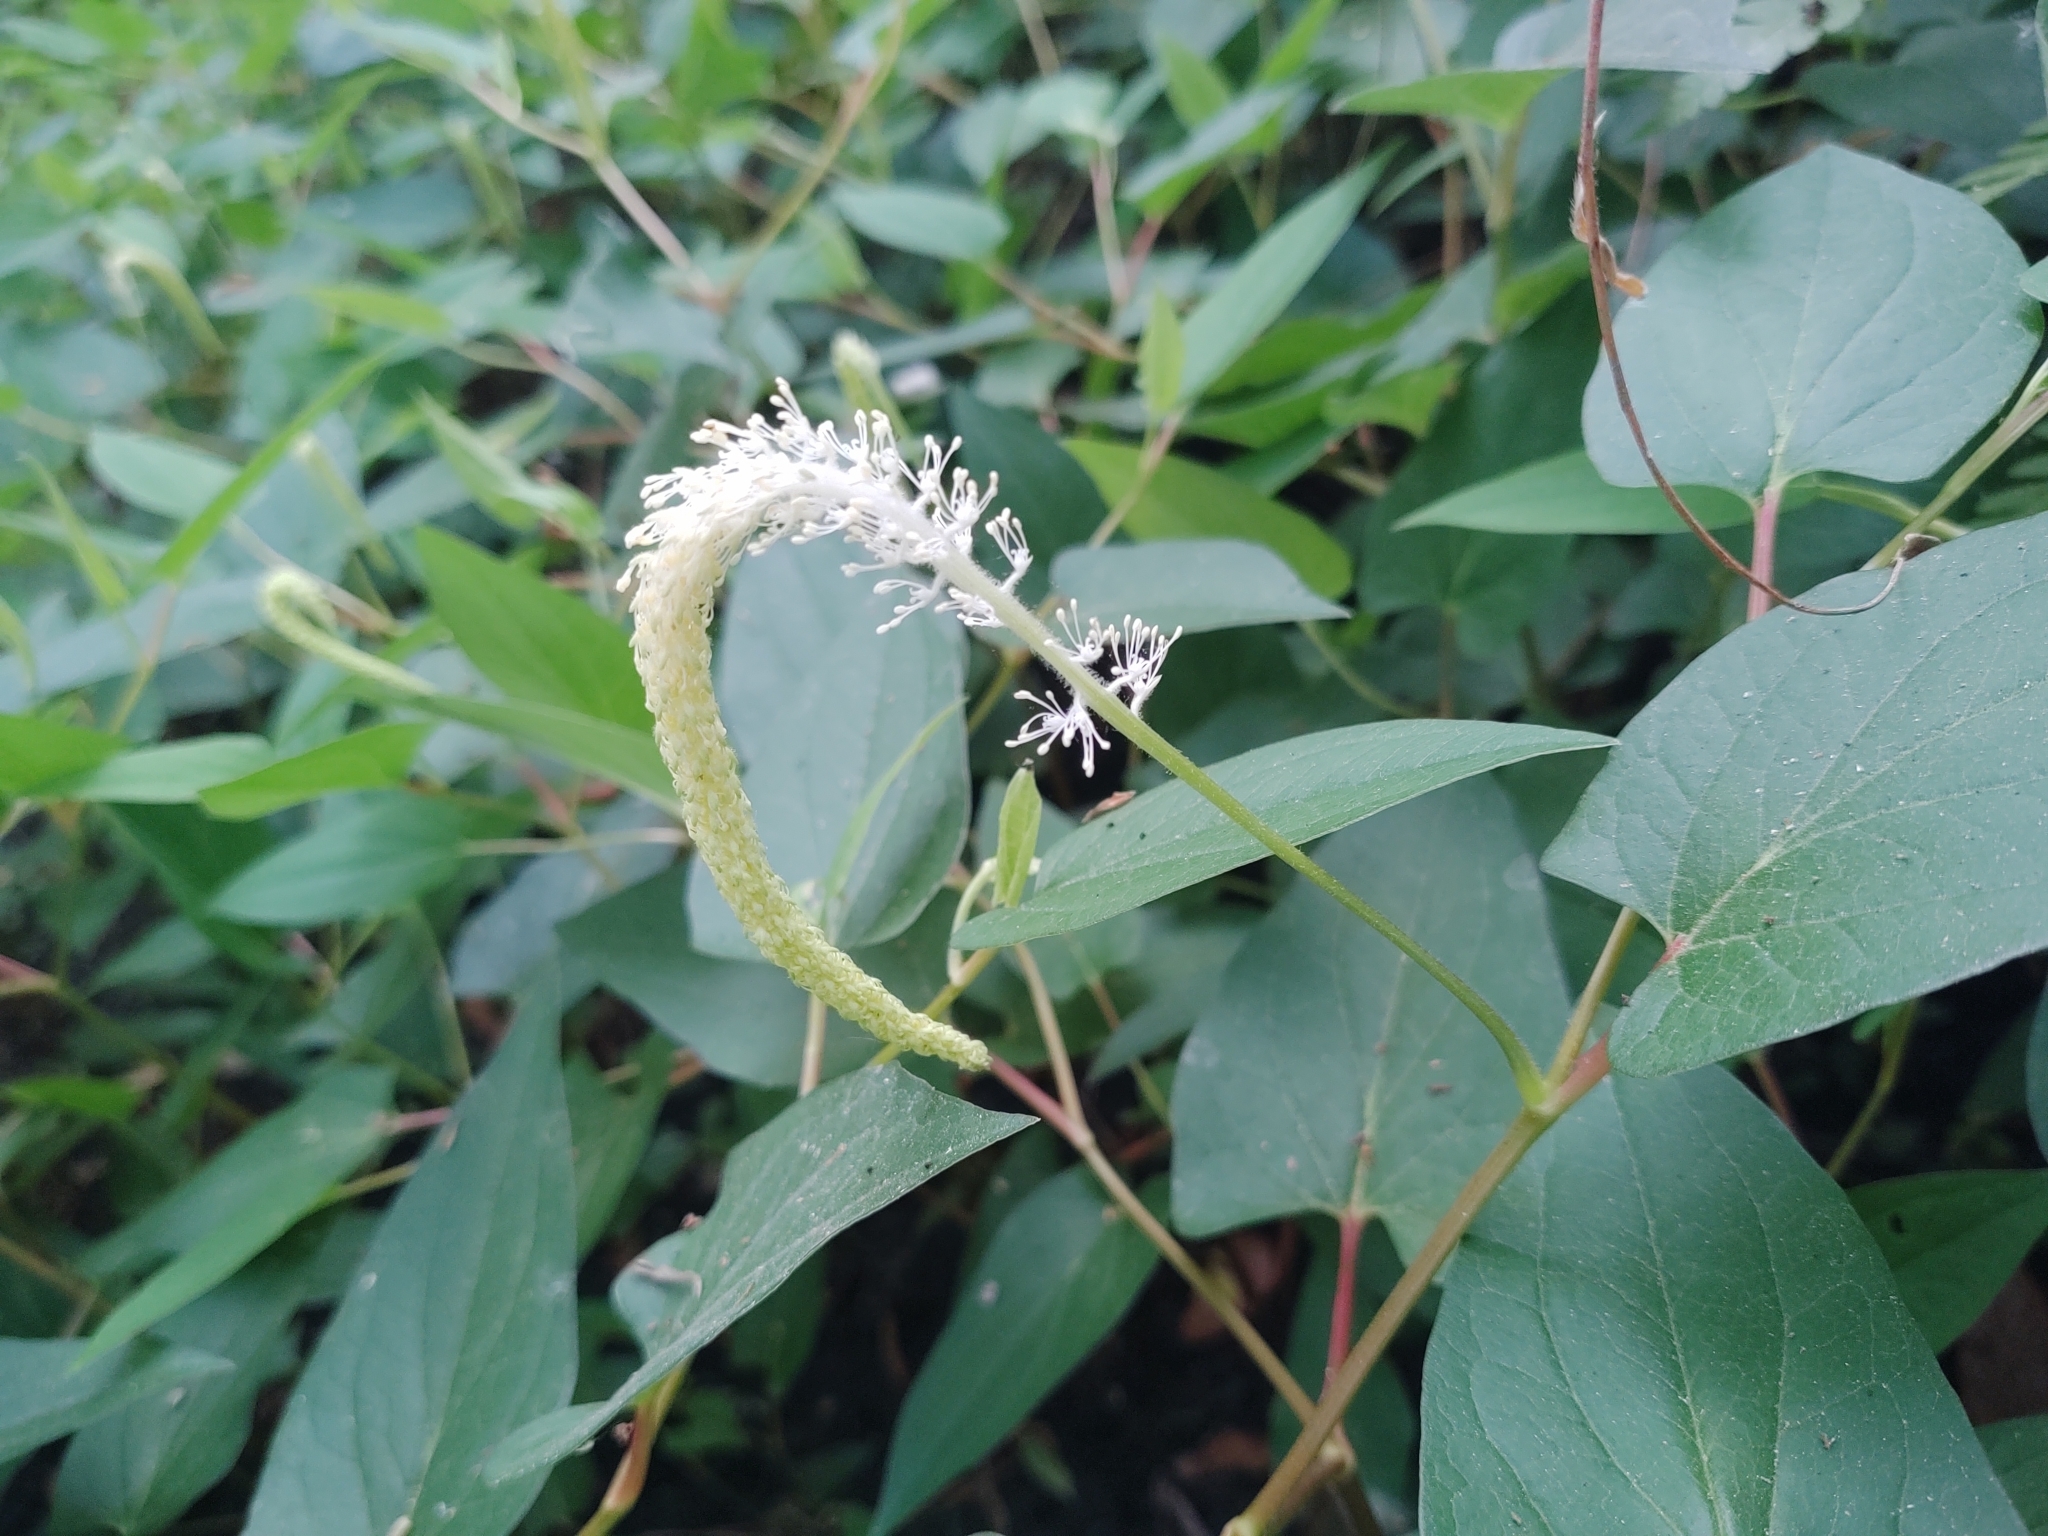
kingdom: Plantae
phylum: Tracheophyta
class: Magnoliopsida
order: Piperales
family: Saururaceae
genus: Saururus
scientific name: Saururus cernuus
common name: Lizard's-tail
